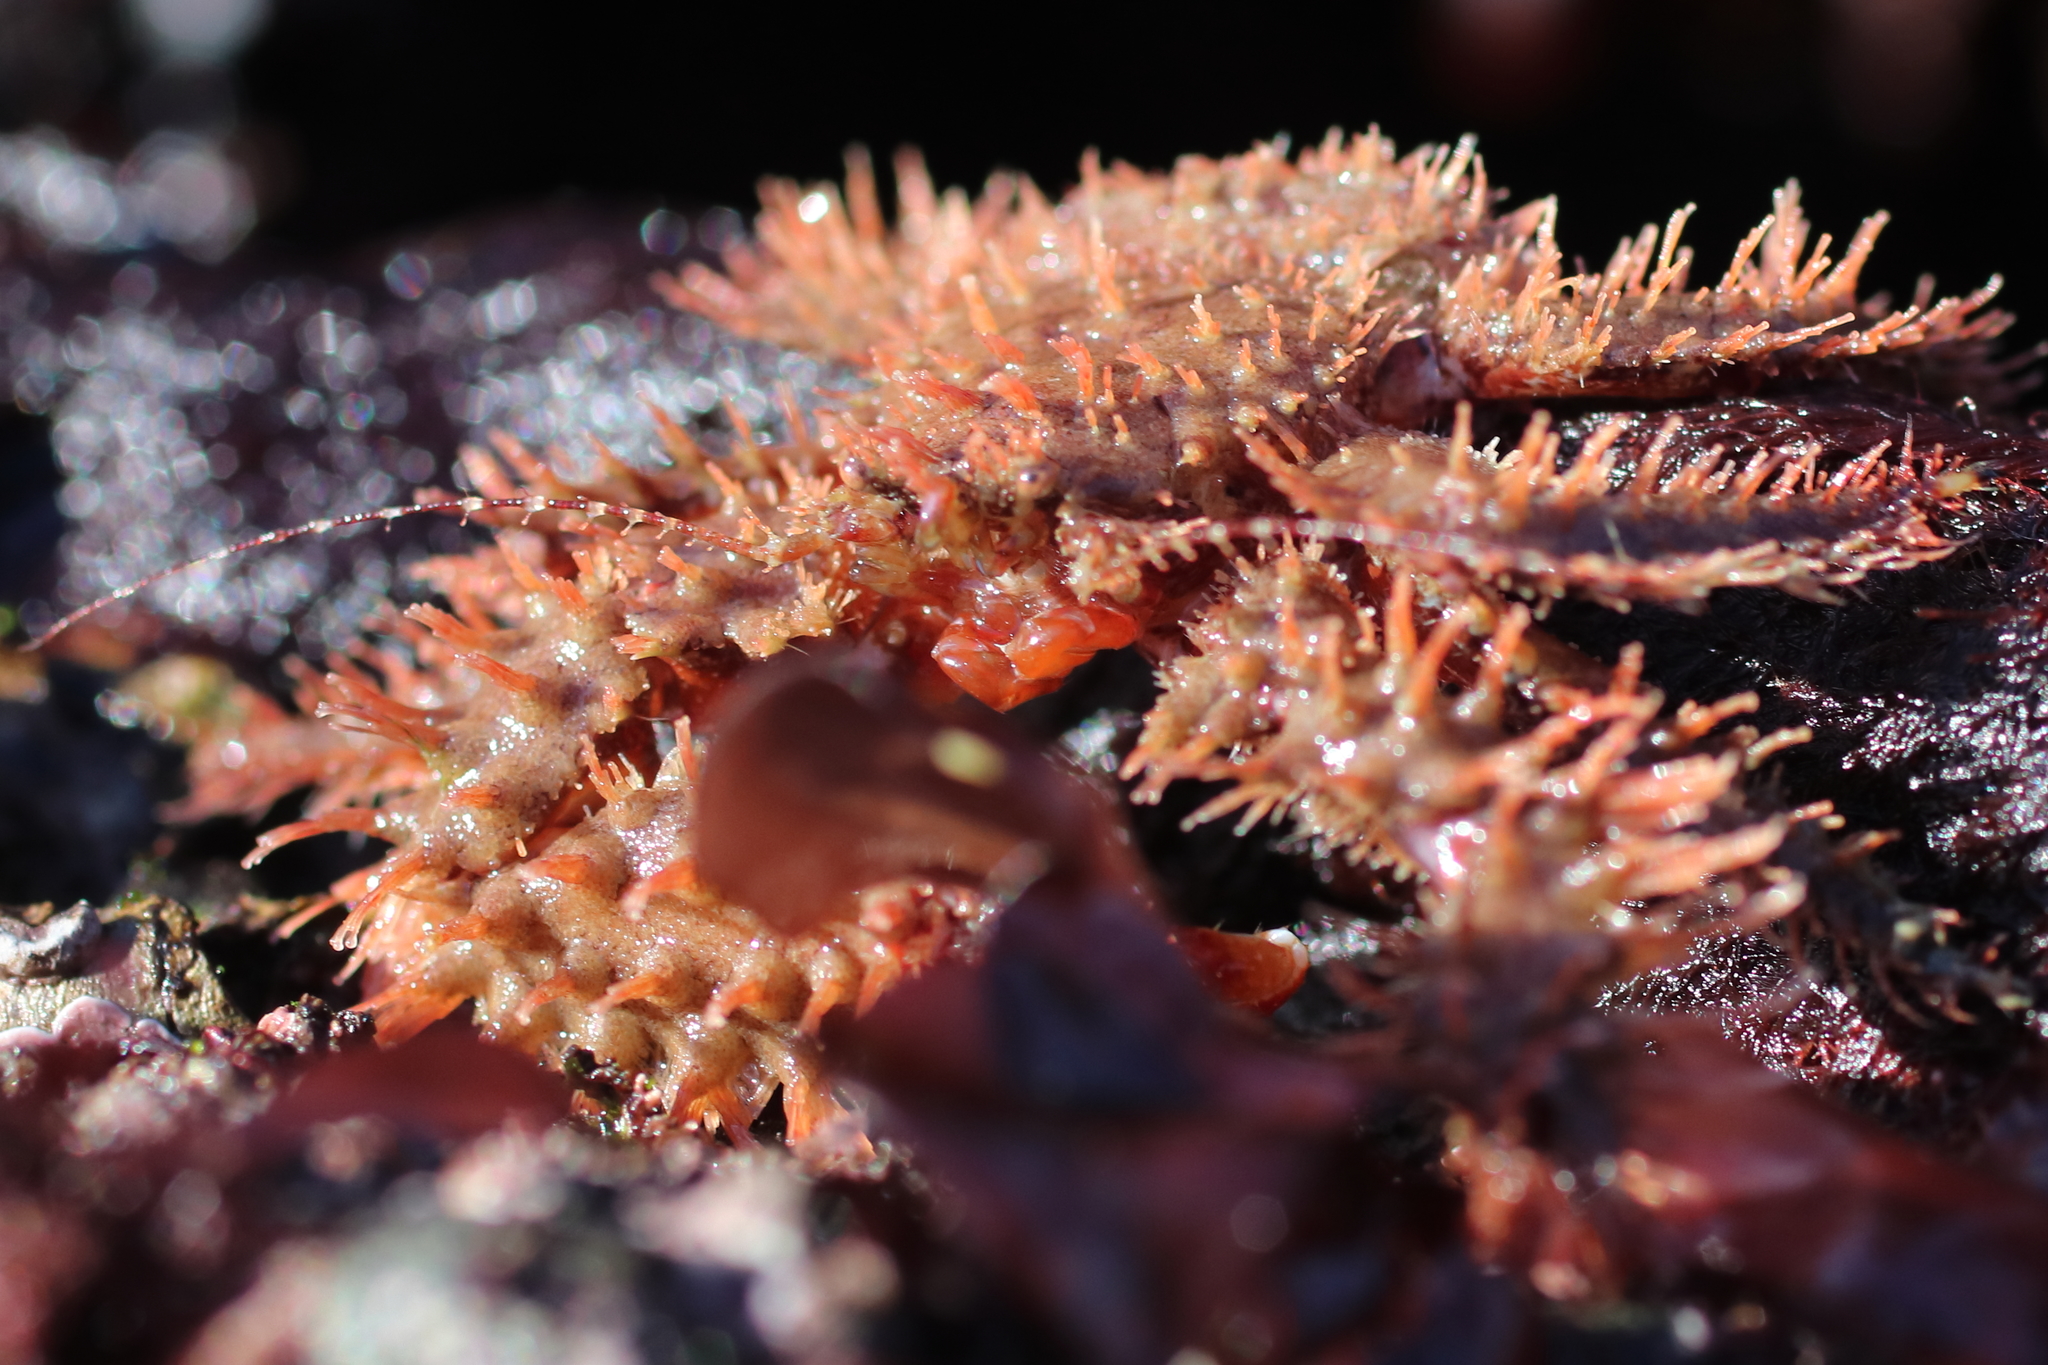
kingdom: Animalia
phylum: Arthropoda
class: Malacostraca
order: Decapoda
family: Hapalogastridae
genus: Hapalogaster
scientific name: Hapalogaster mertensii
